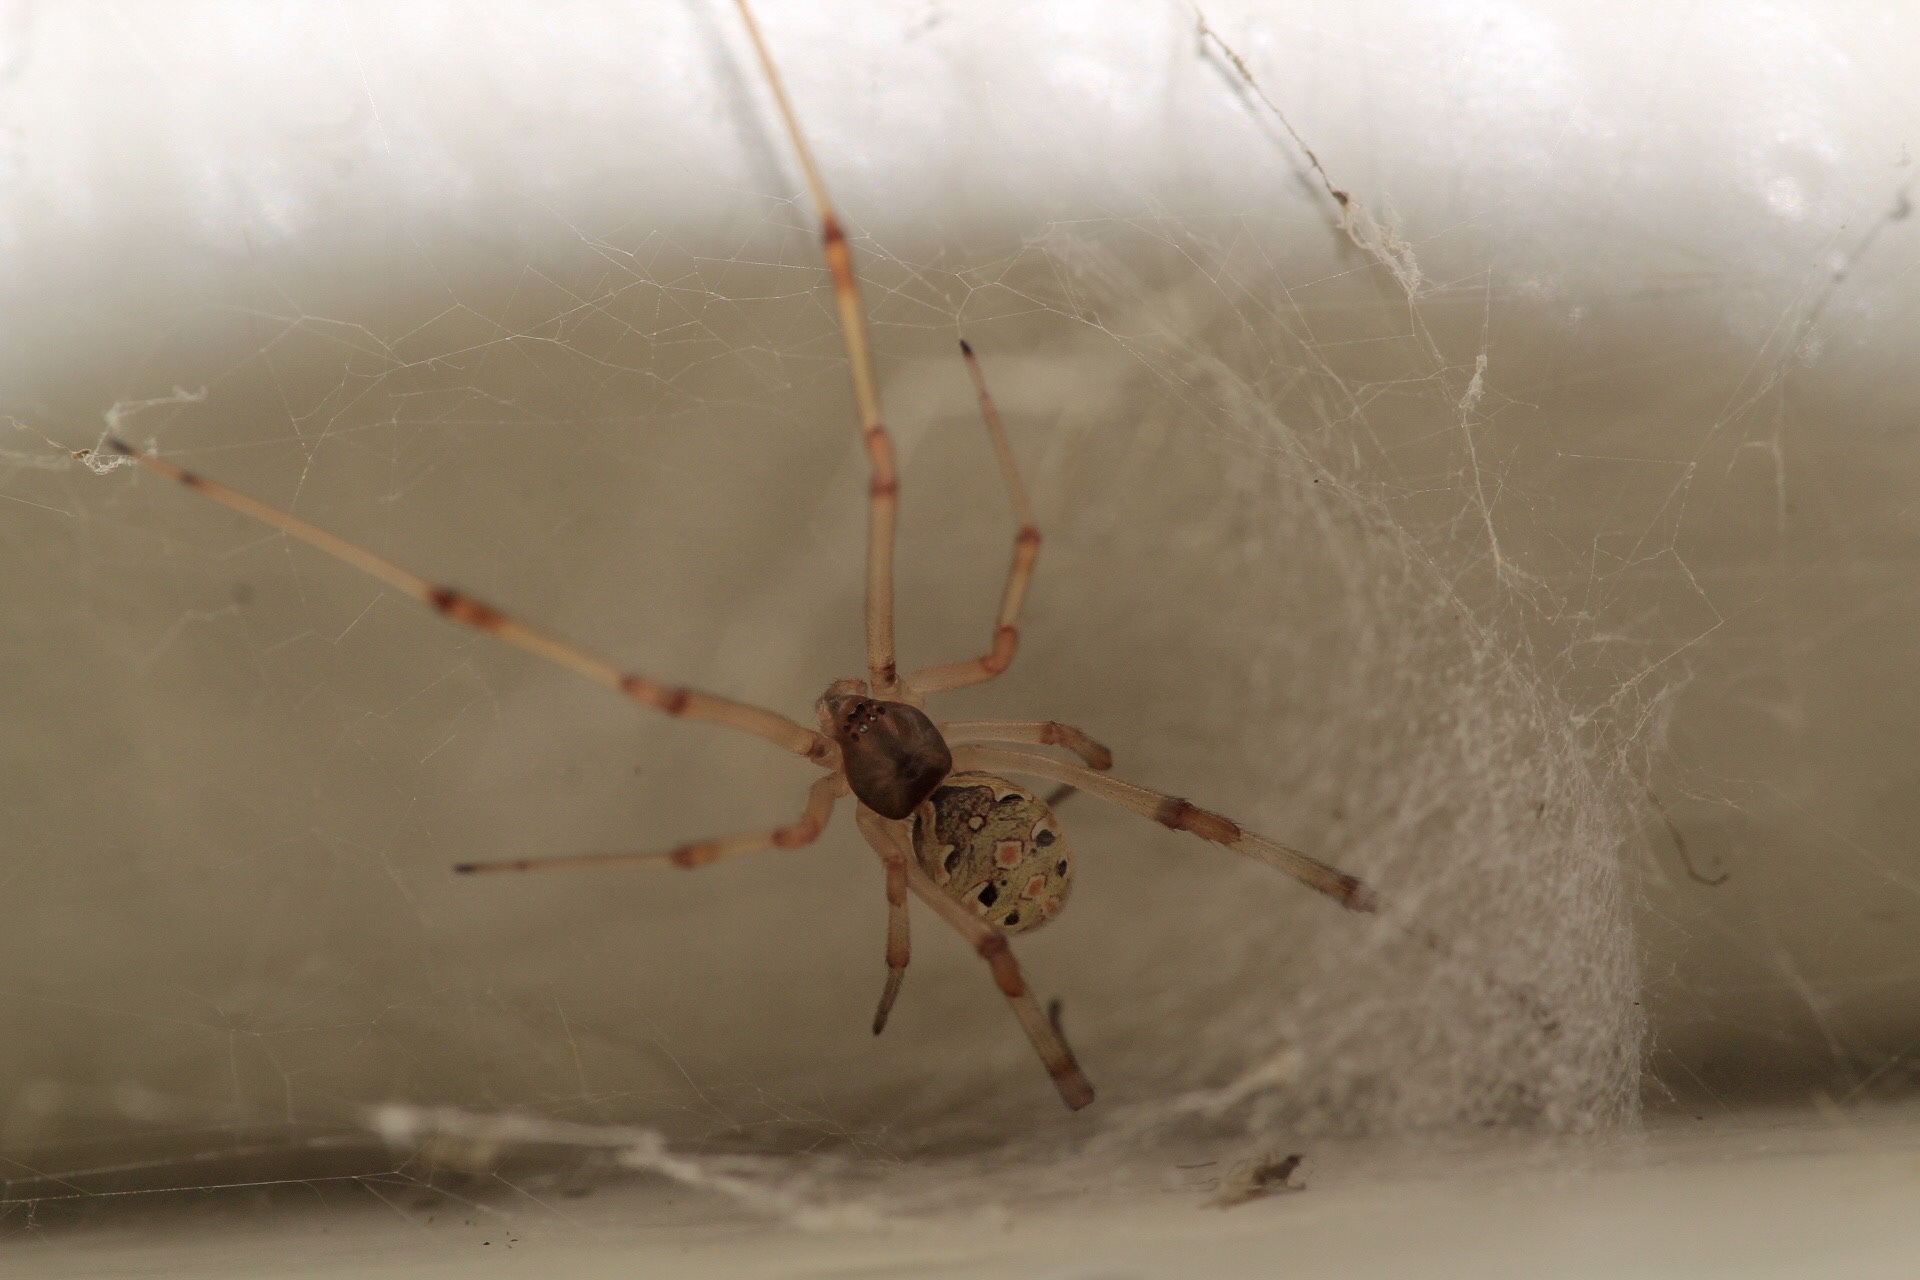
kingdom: Animalia
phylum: Arthropoda
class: Arachnida
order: Araneae
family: Theridiidae
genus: Latrodectus
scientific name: Latrodectus geometricus
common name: Brown widow spider
